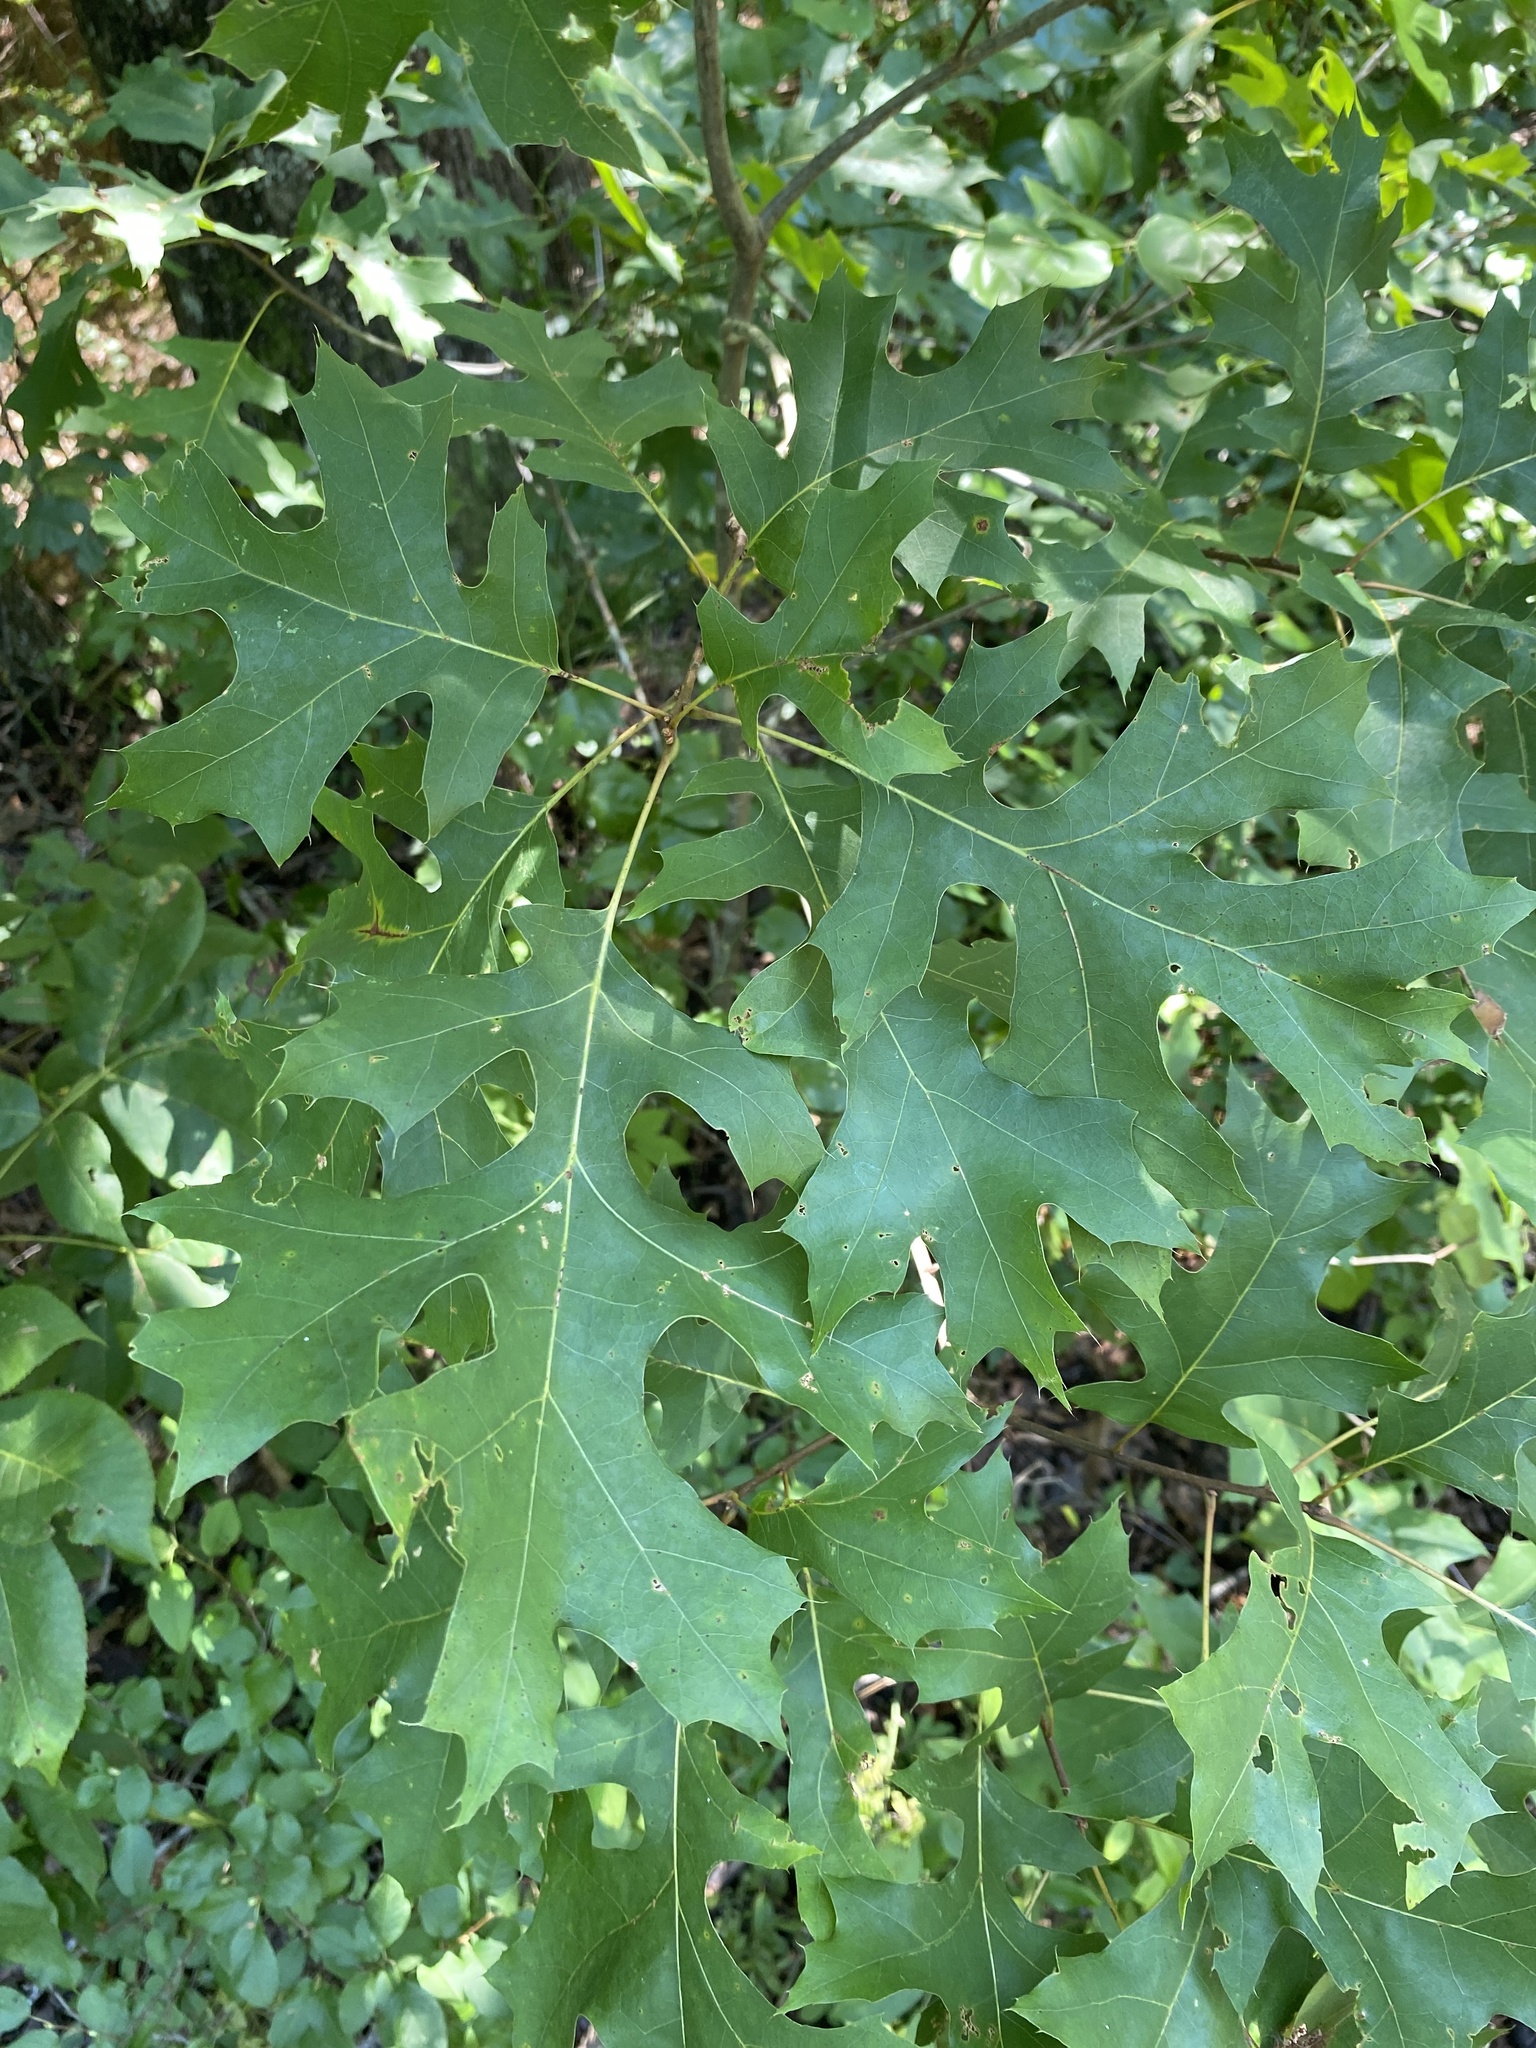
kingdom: Plantae
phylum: Tracheophyta
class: Magnoliopsida
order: Fagales
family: Fagaceae
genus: Quercus
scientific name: Quercus coccinea
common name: Scarlet oak
